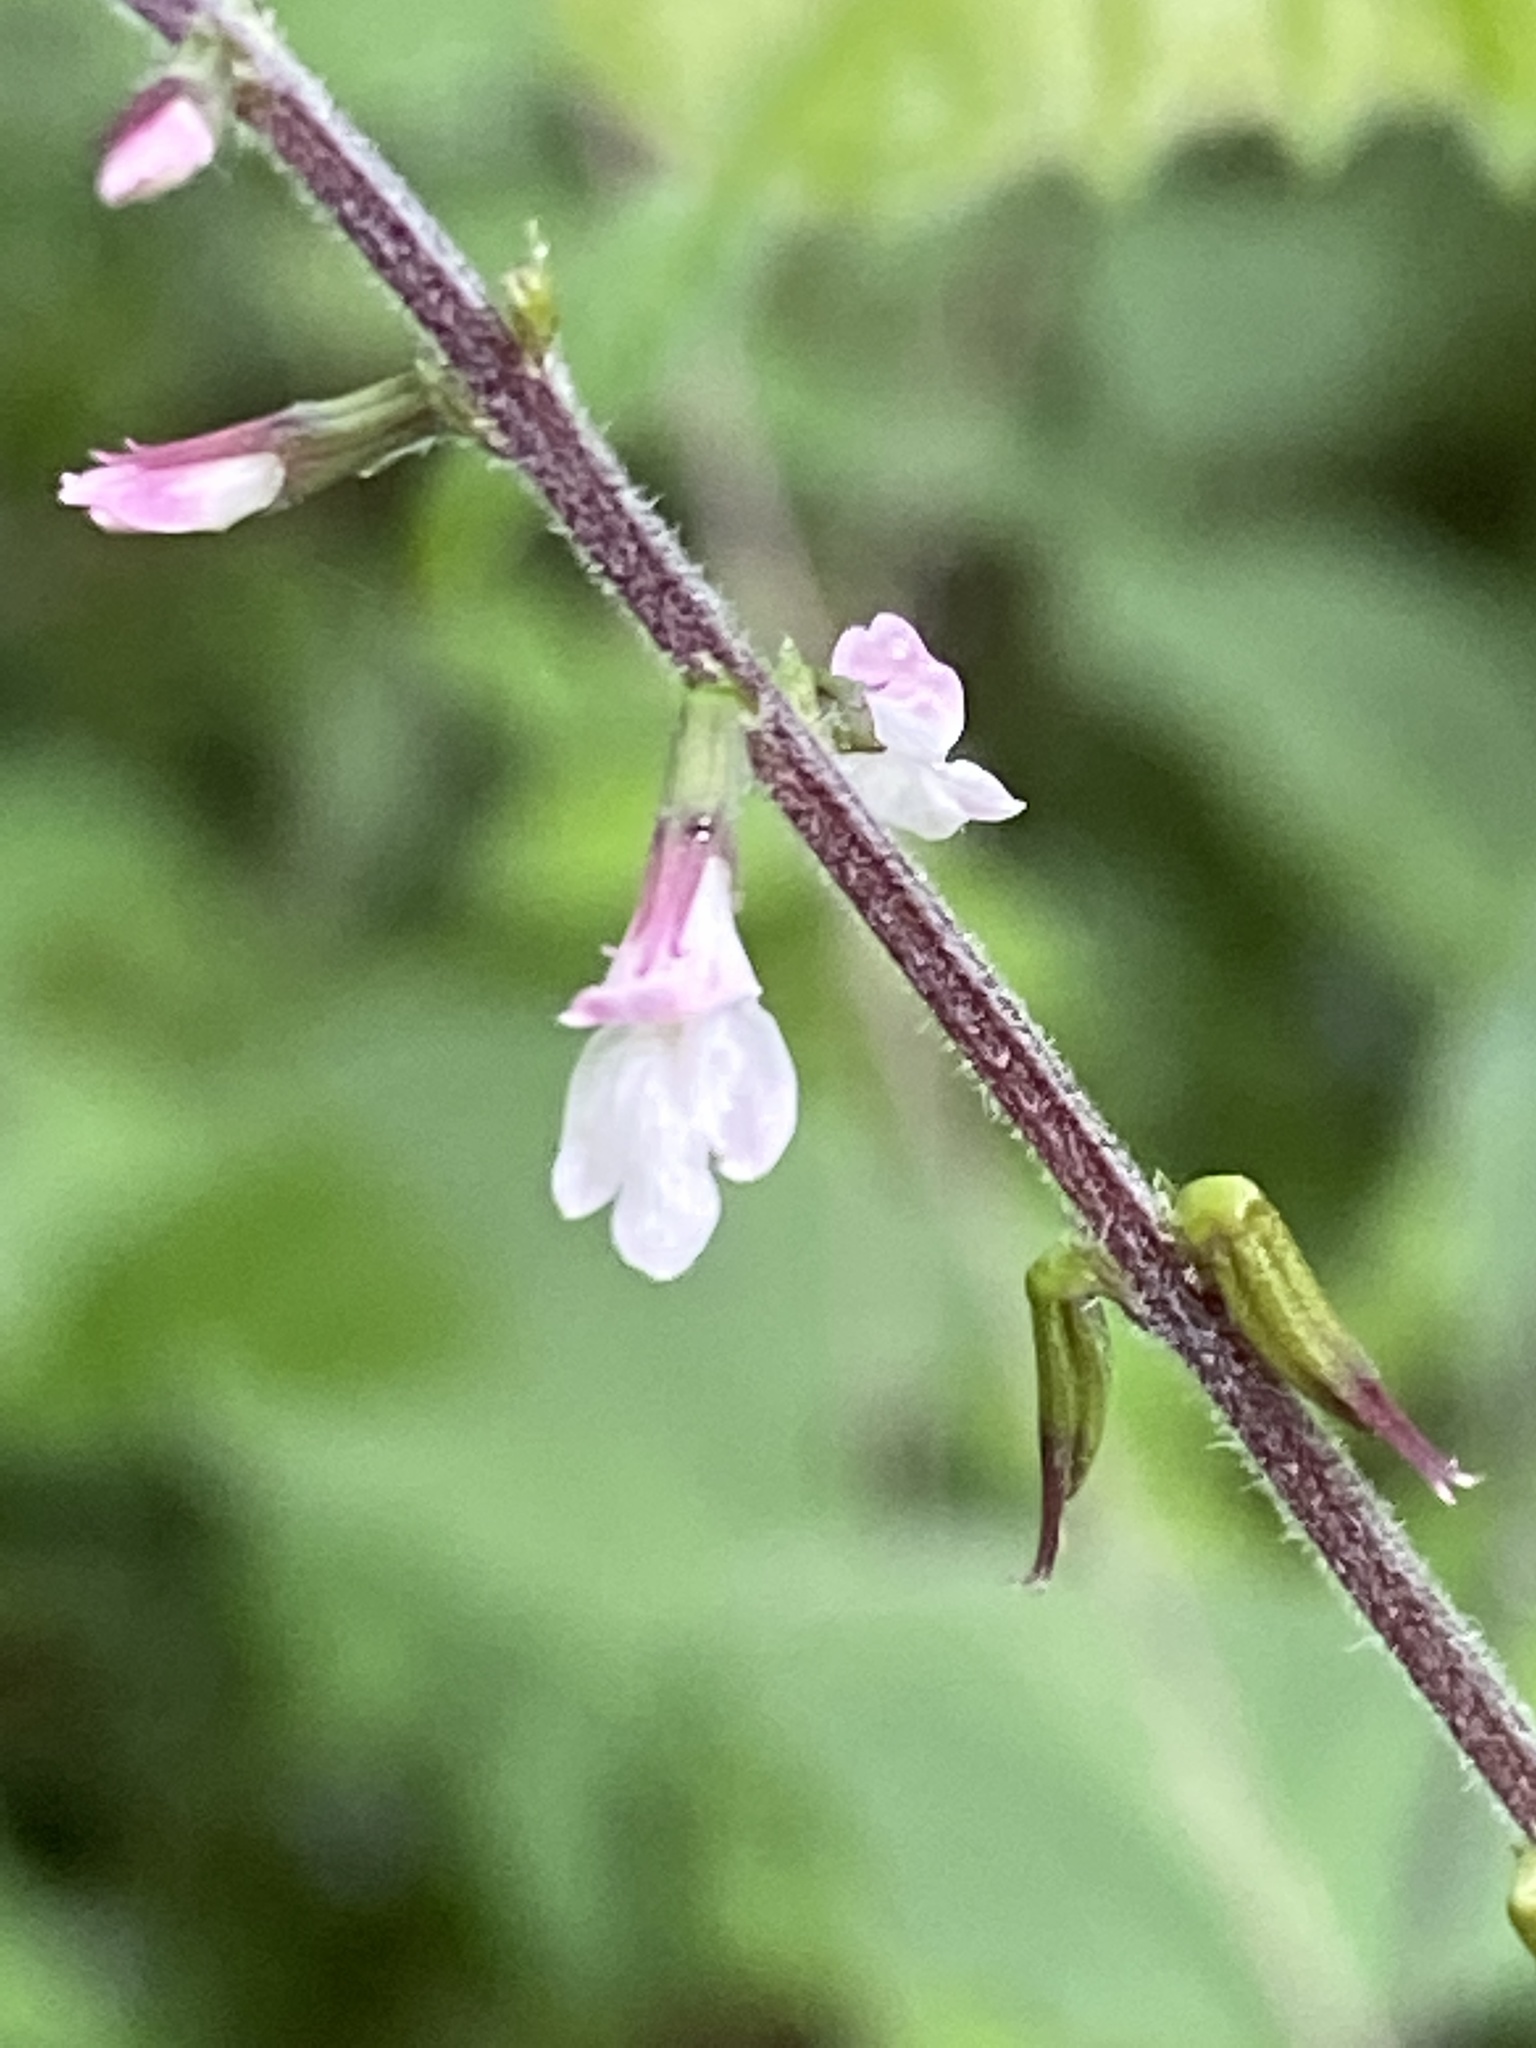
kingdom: Plantae
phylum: Tracheophyta
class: Magnoliopsida
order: Lamiales
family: Phrymaceae
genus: Phryma
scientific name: Phryma leptostachya
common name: American lopseed
